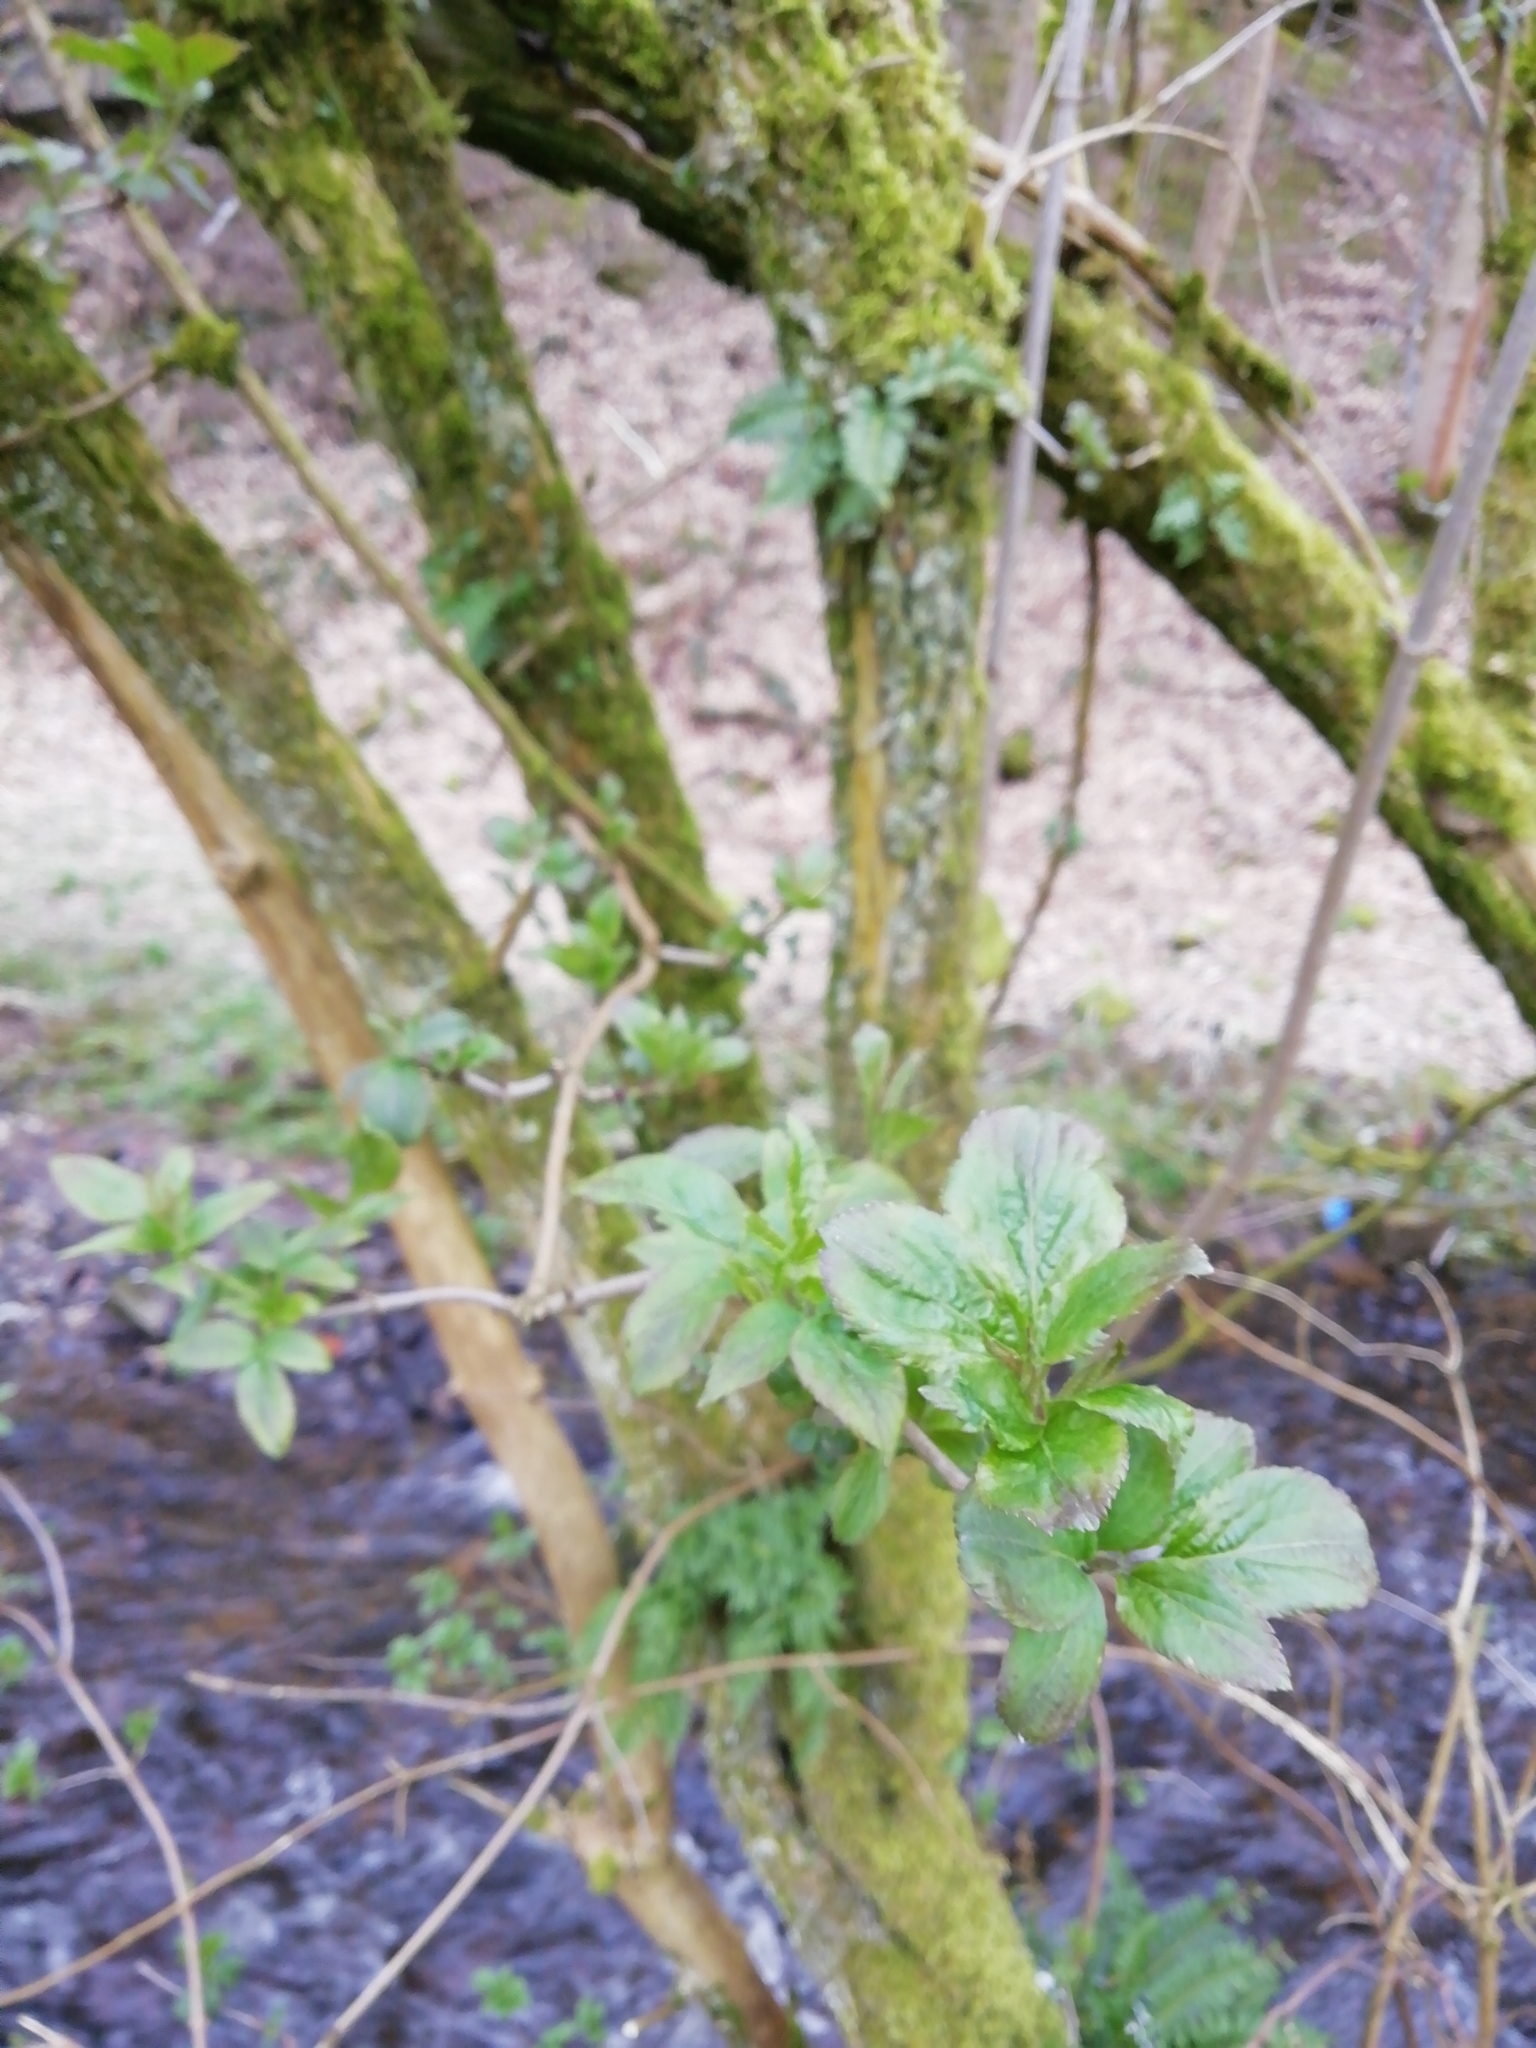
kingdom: Plantae
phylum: Tracheophyta
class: Magnoliopsida
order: Dipsacales
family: Viburnaceae
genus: Sambucus
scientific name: Sambucus nigra
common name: Elder
